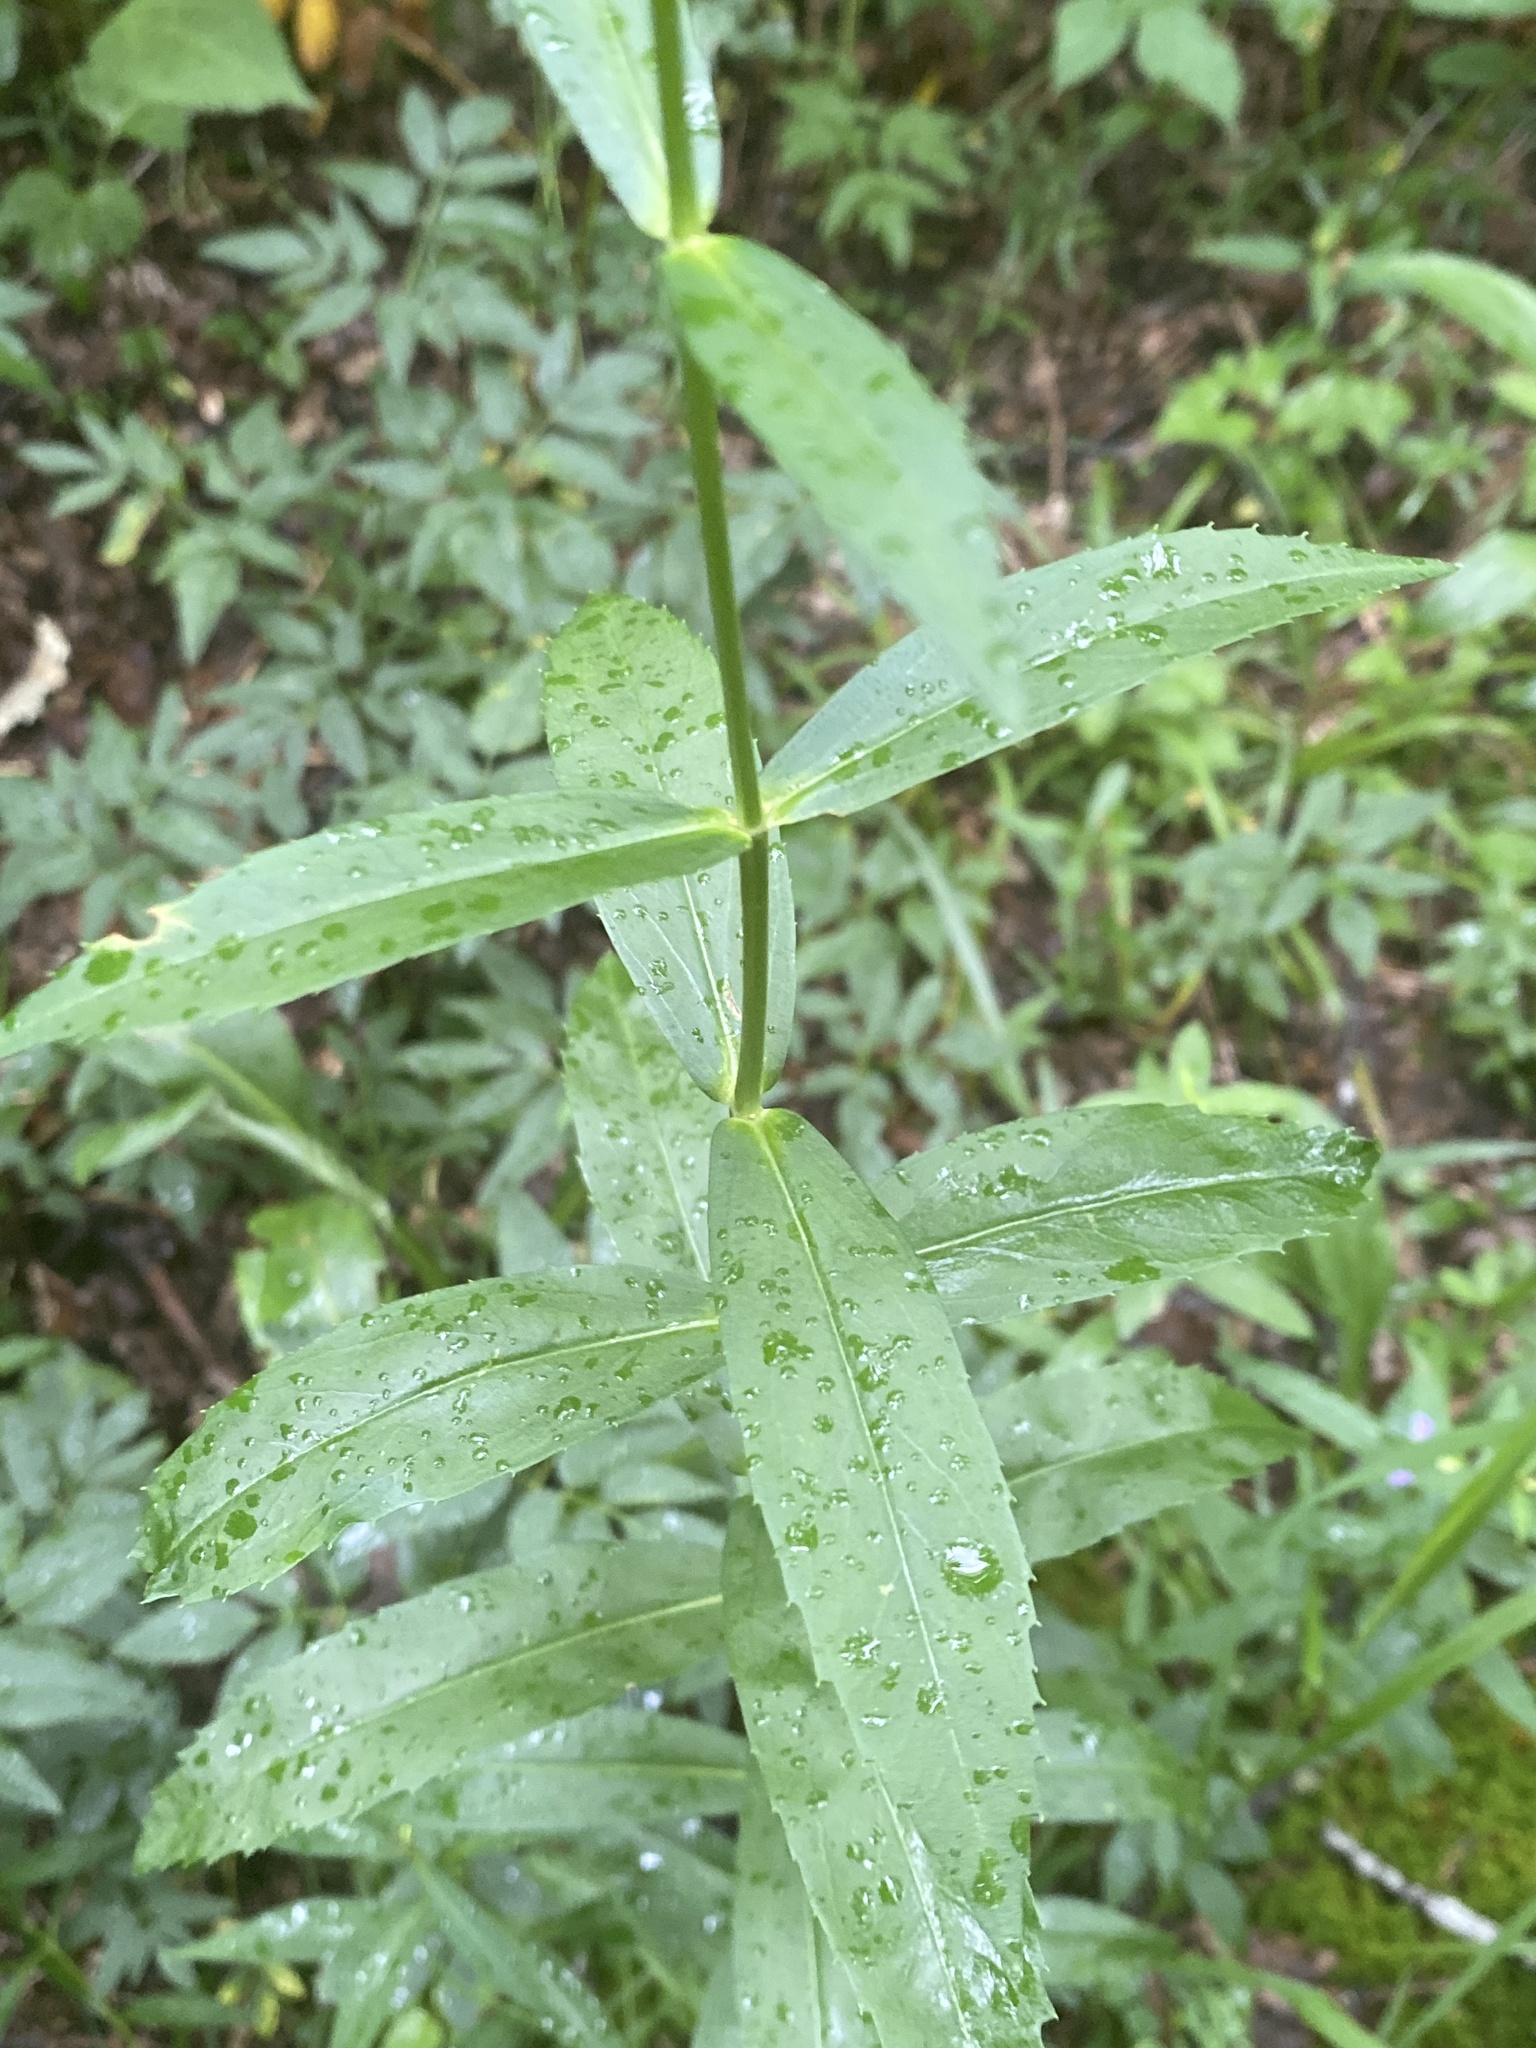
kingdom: Plantae
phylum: Tracheophyta
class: Magnoliopsida
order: Lamiales
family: Lamiaceae
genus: Physostegia
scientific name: Physostegia virginiana
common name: Obedient-plant
